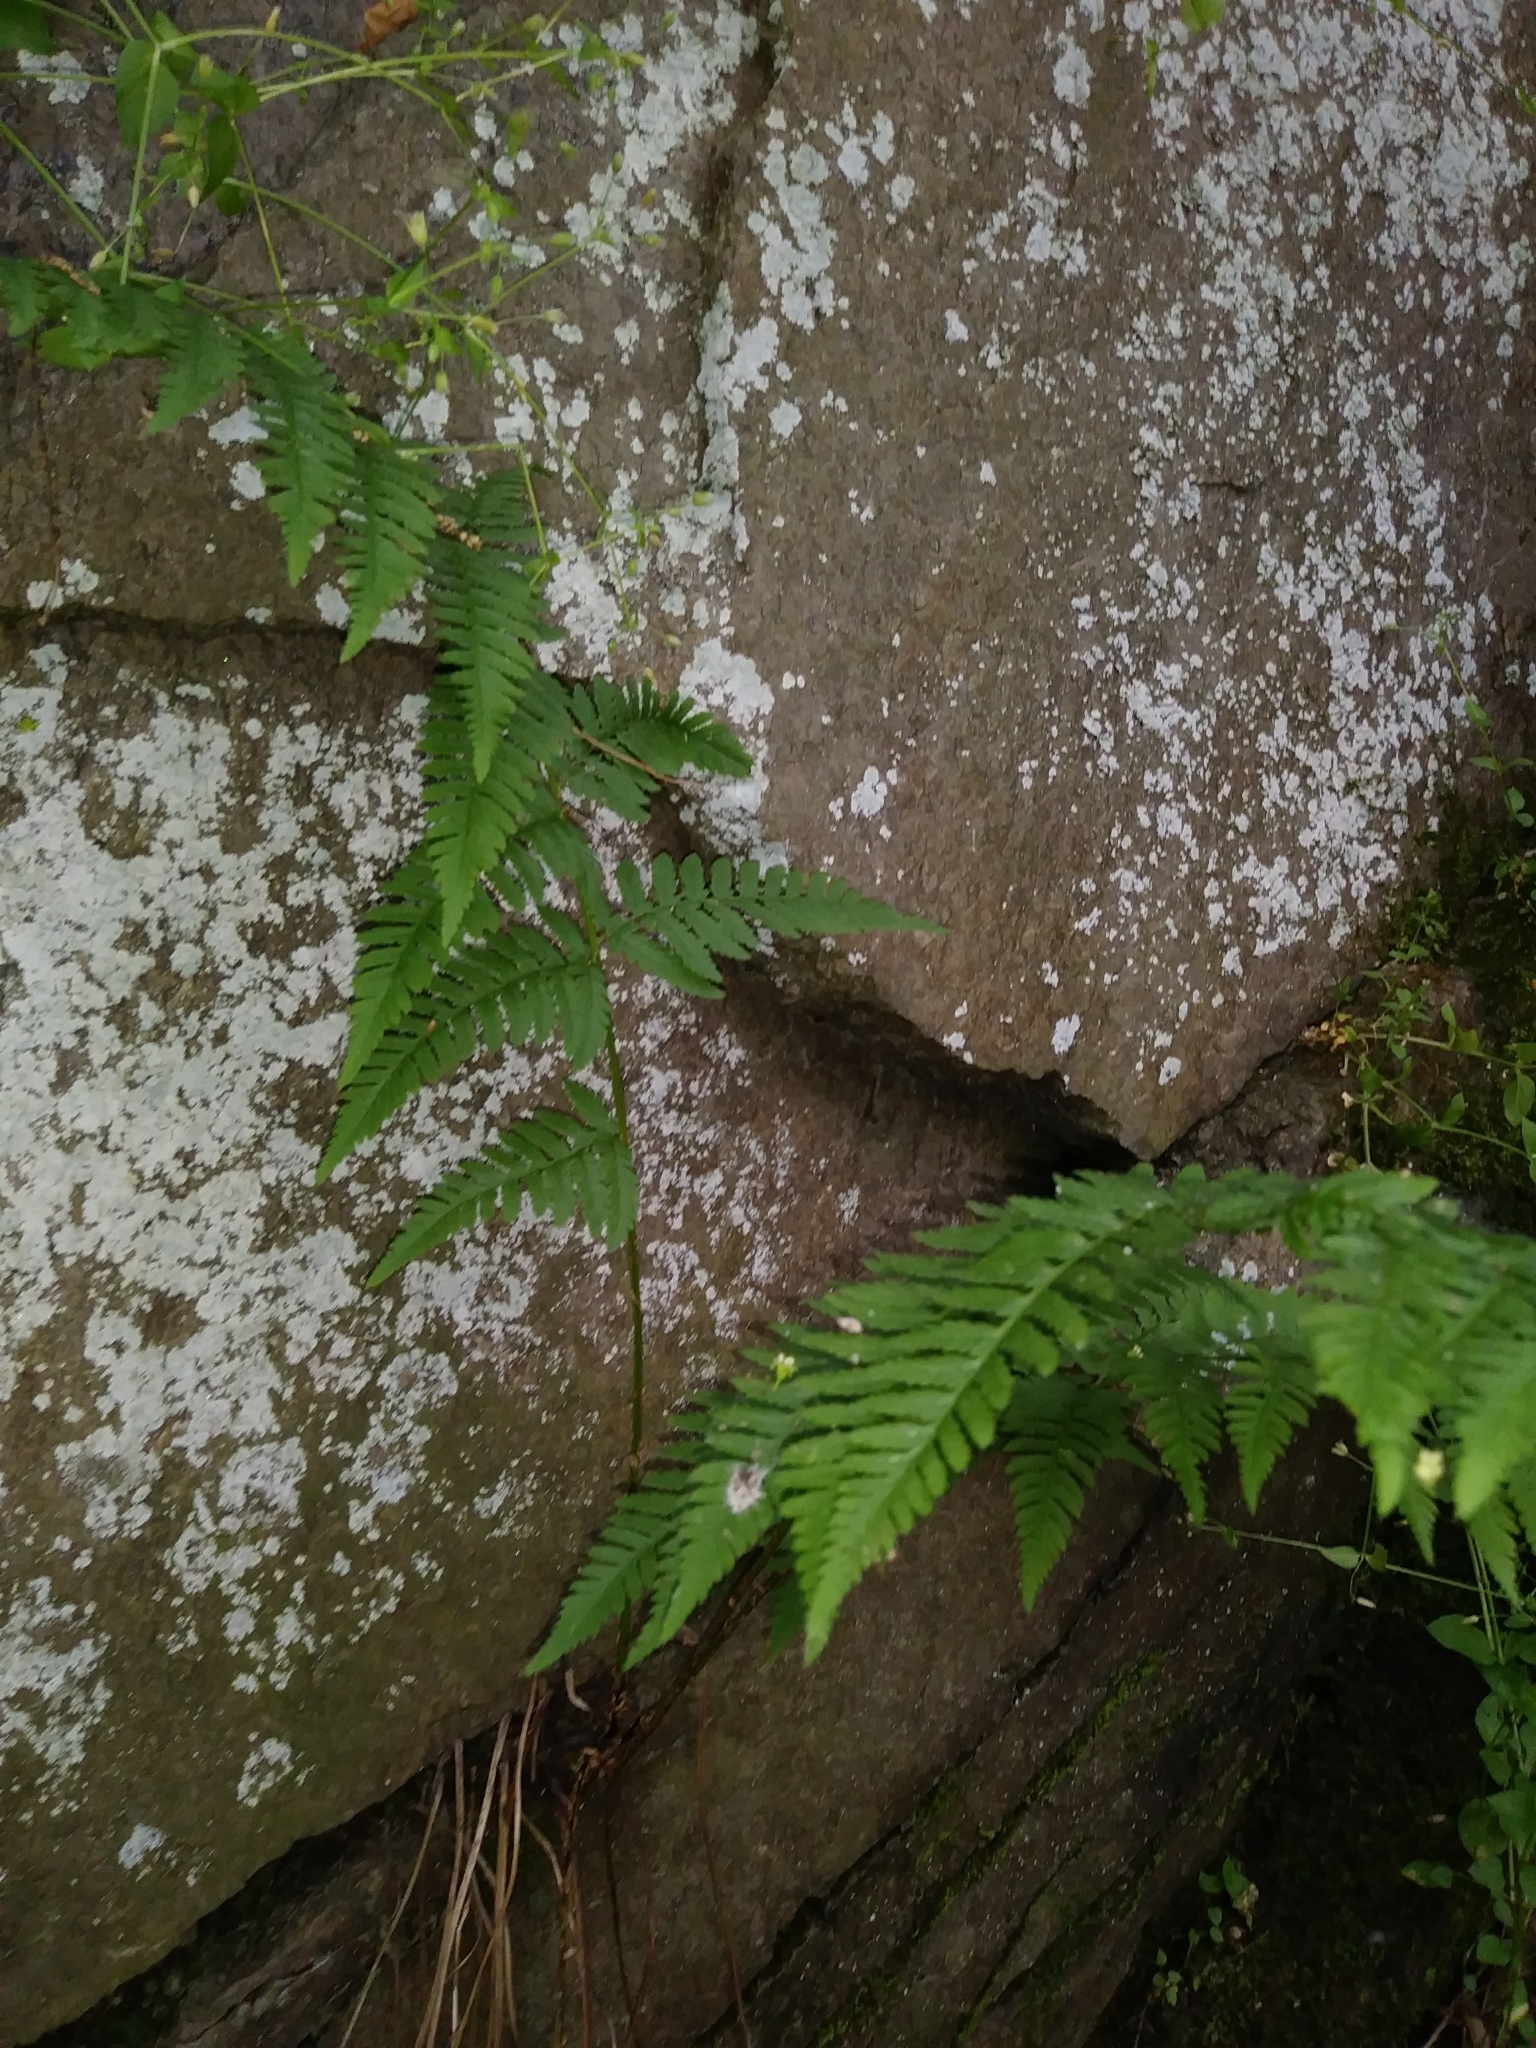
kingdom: Plantae
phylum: Tracheophyta
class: Polypodiopsida
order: Polypodiales
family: Dryopteridaceae
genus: Dryopteris
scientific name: Dryopteris carthusiana
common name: Narrow buckler-fern
